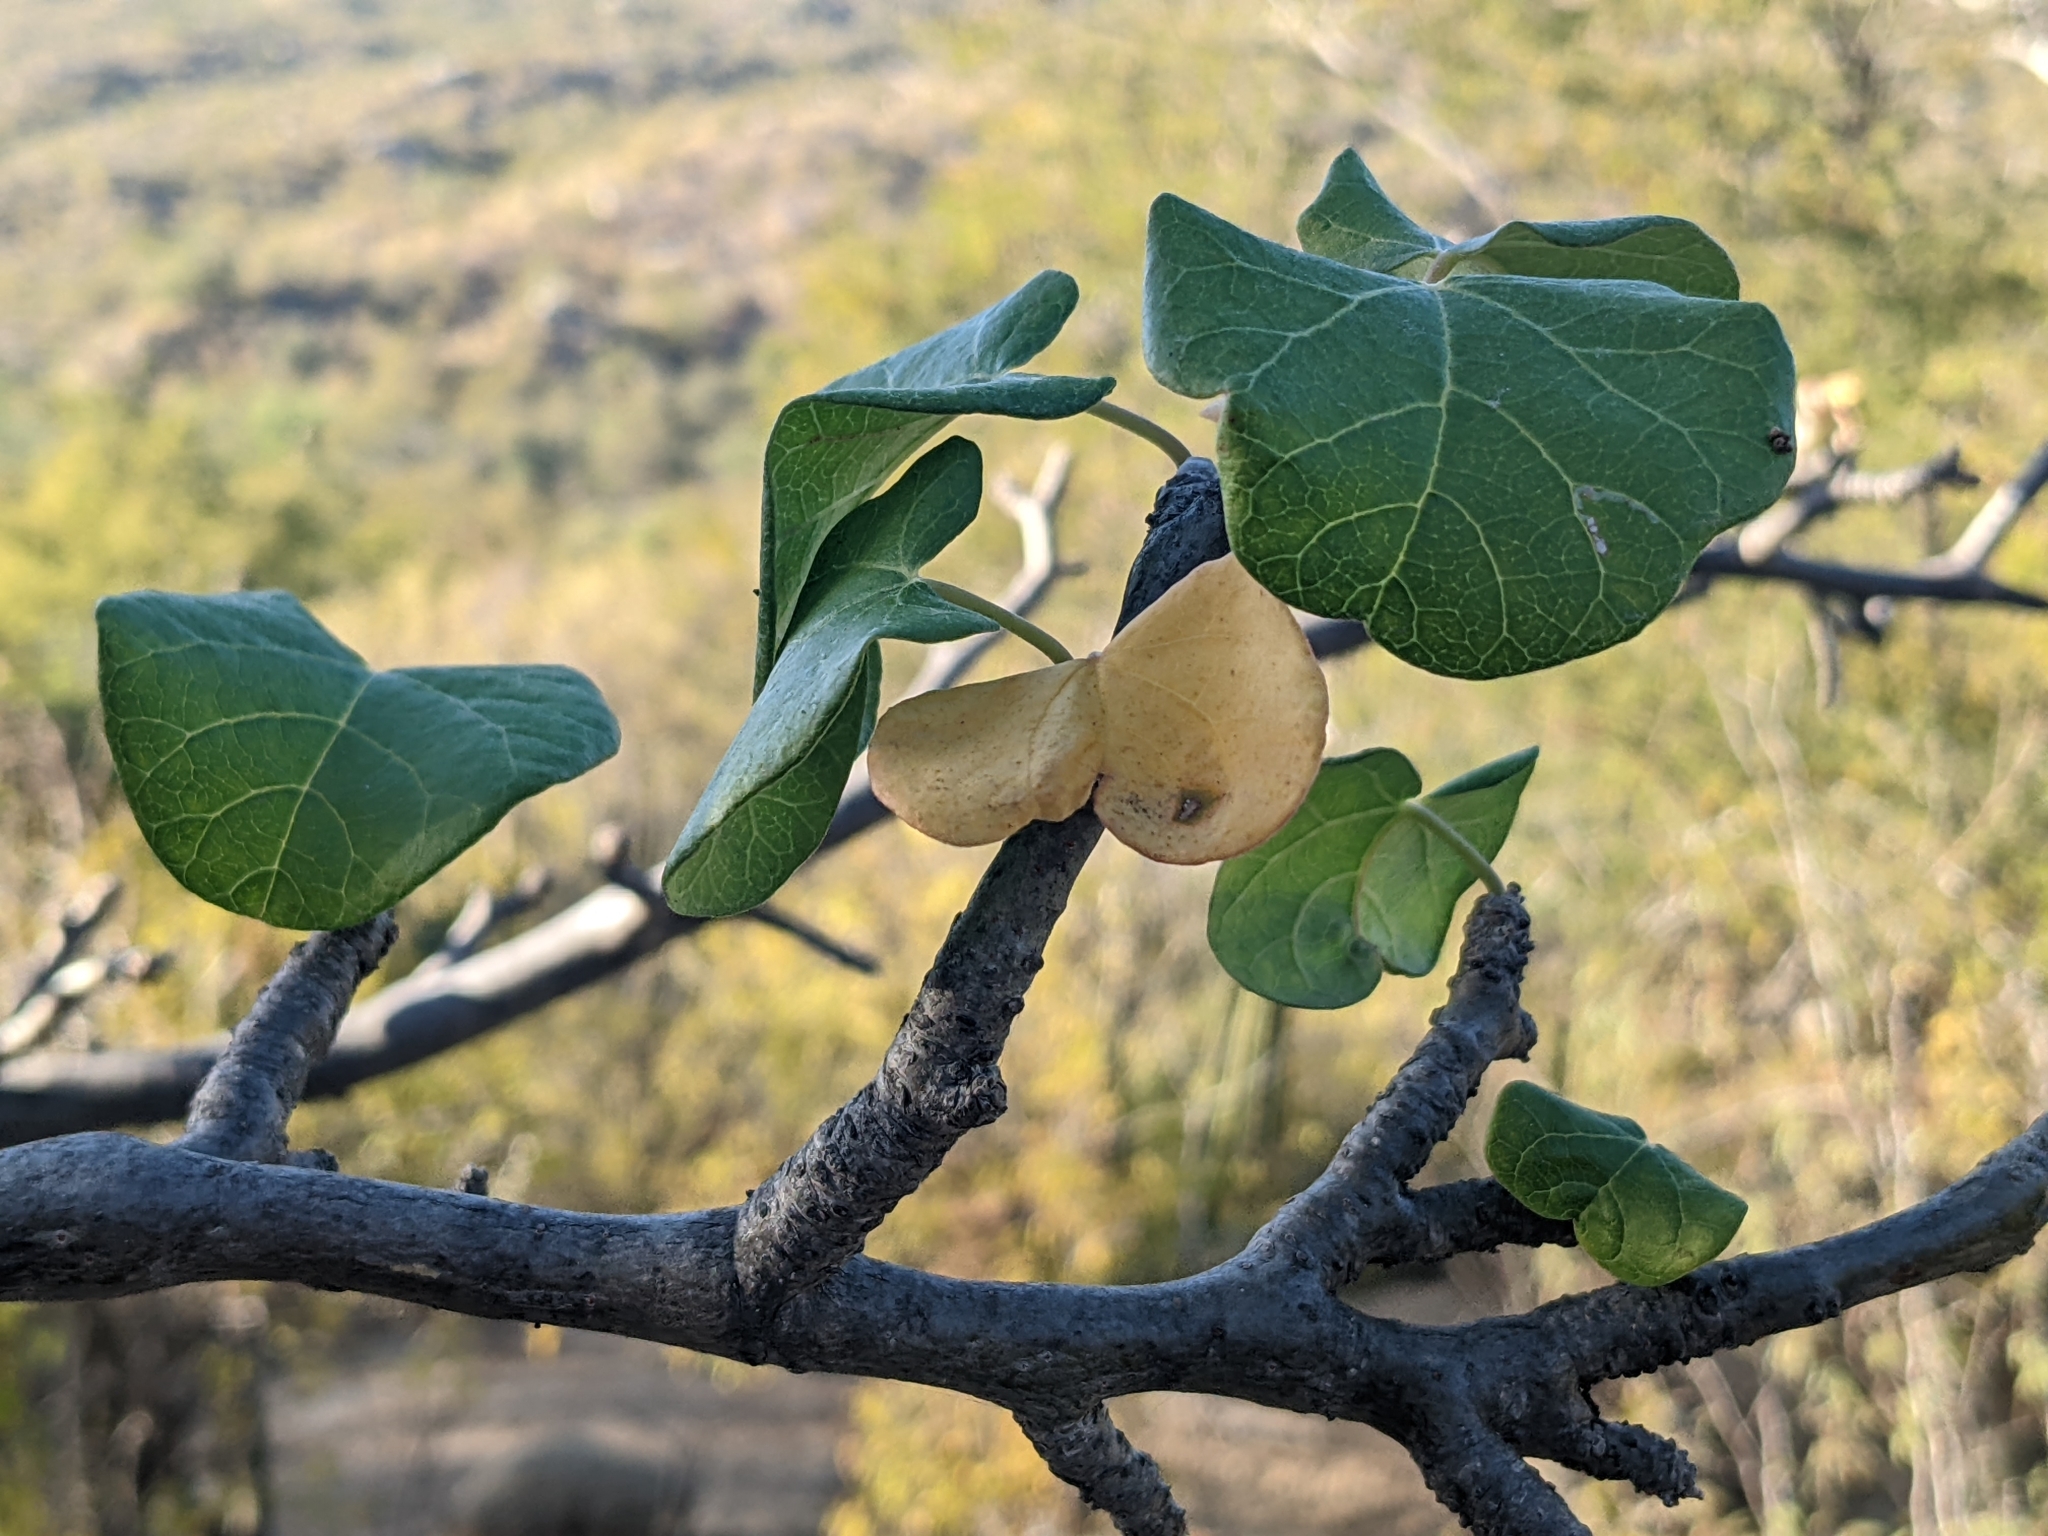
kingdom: Plantae
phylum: Tracheophyta
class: Magnoliopsida
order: Malpighiales
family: Euphorbiaceae
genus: Jatropha
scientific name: Jatropha cinerea
